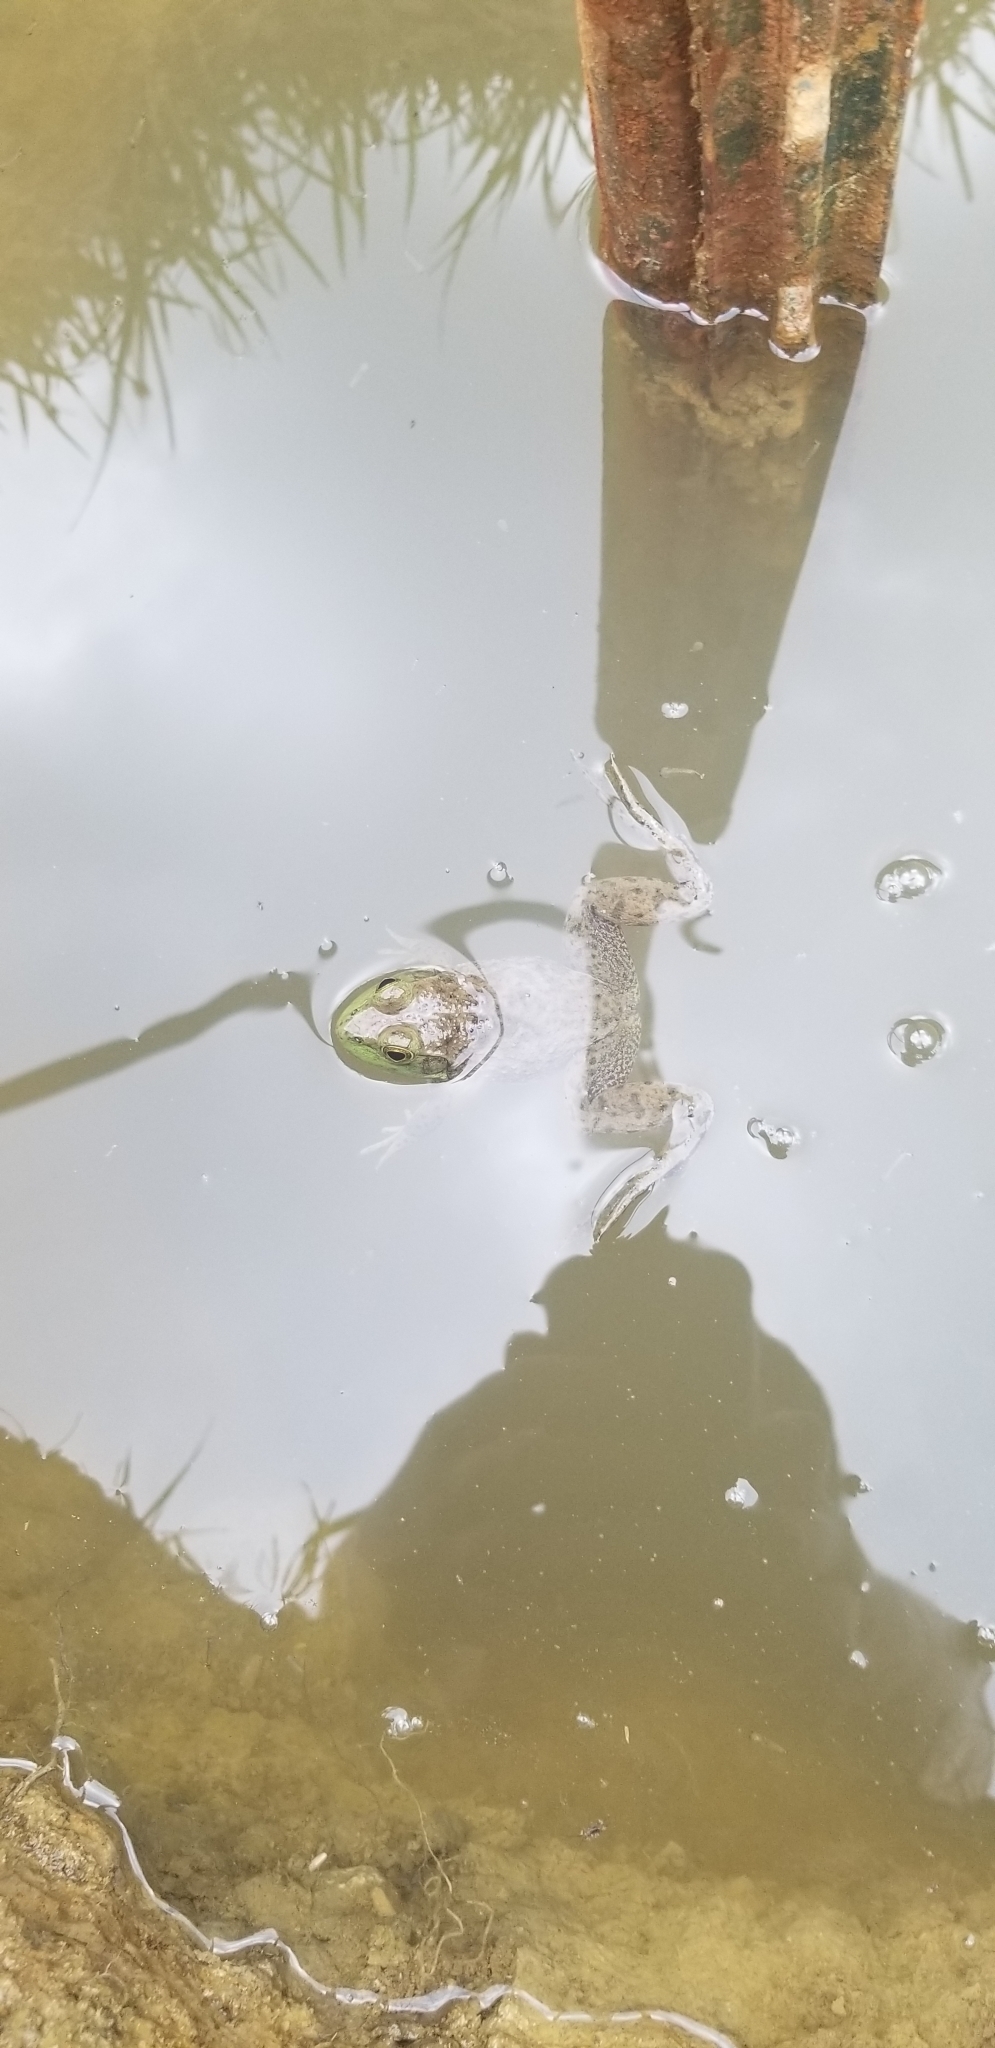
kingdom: Animalia
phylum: Chordata
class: Amphibia
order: Anura
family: Ranidae
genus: Lithobates
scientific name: Lithobates catesbeianus
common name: American bullfrog
